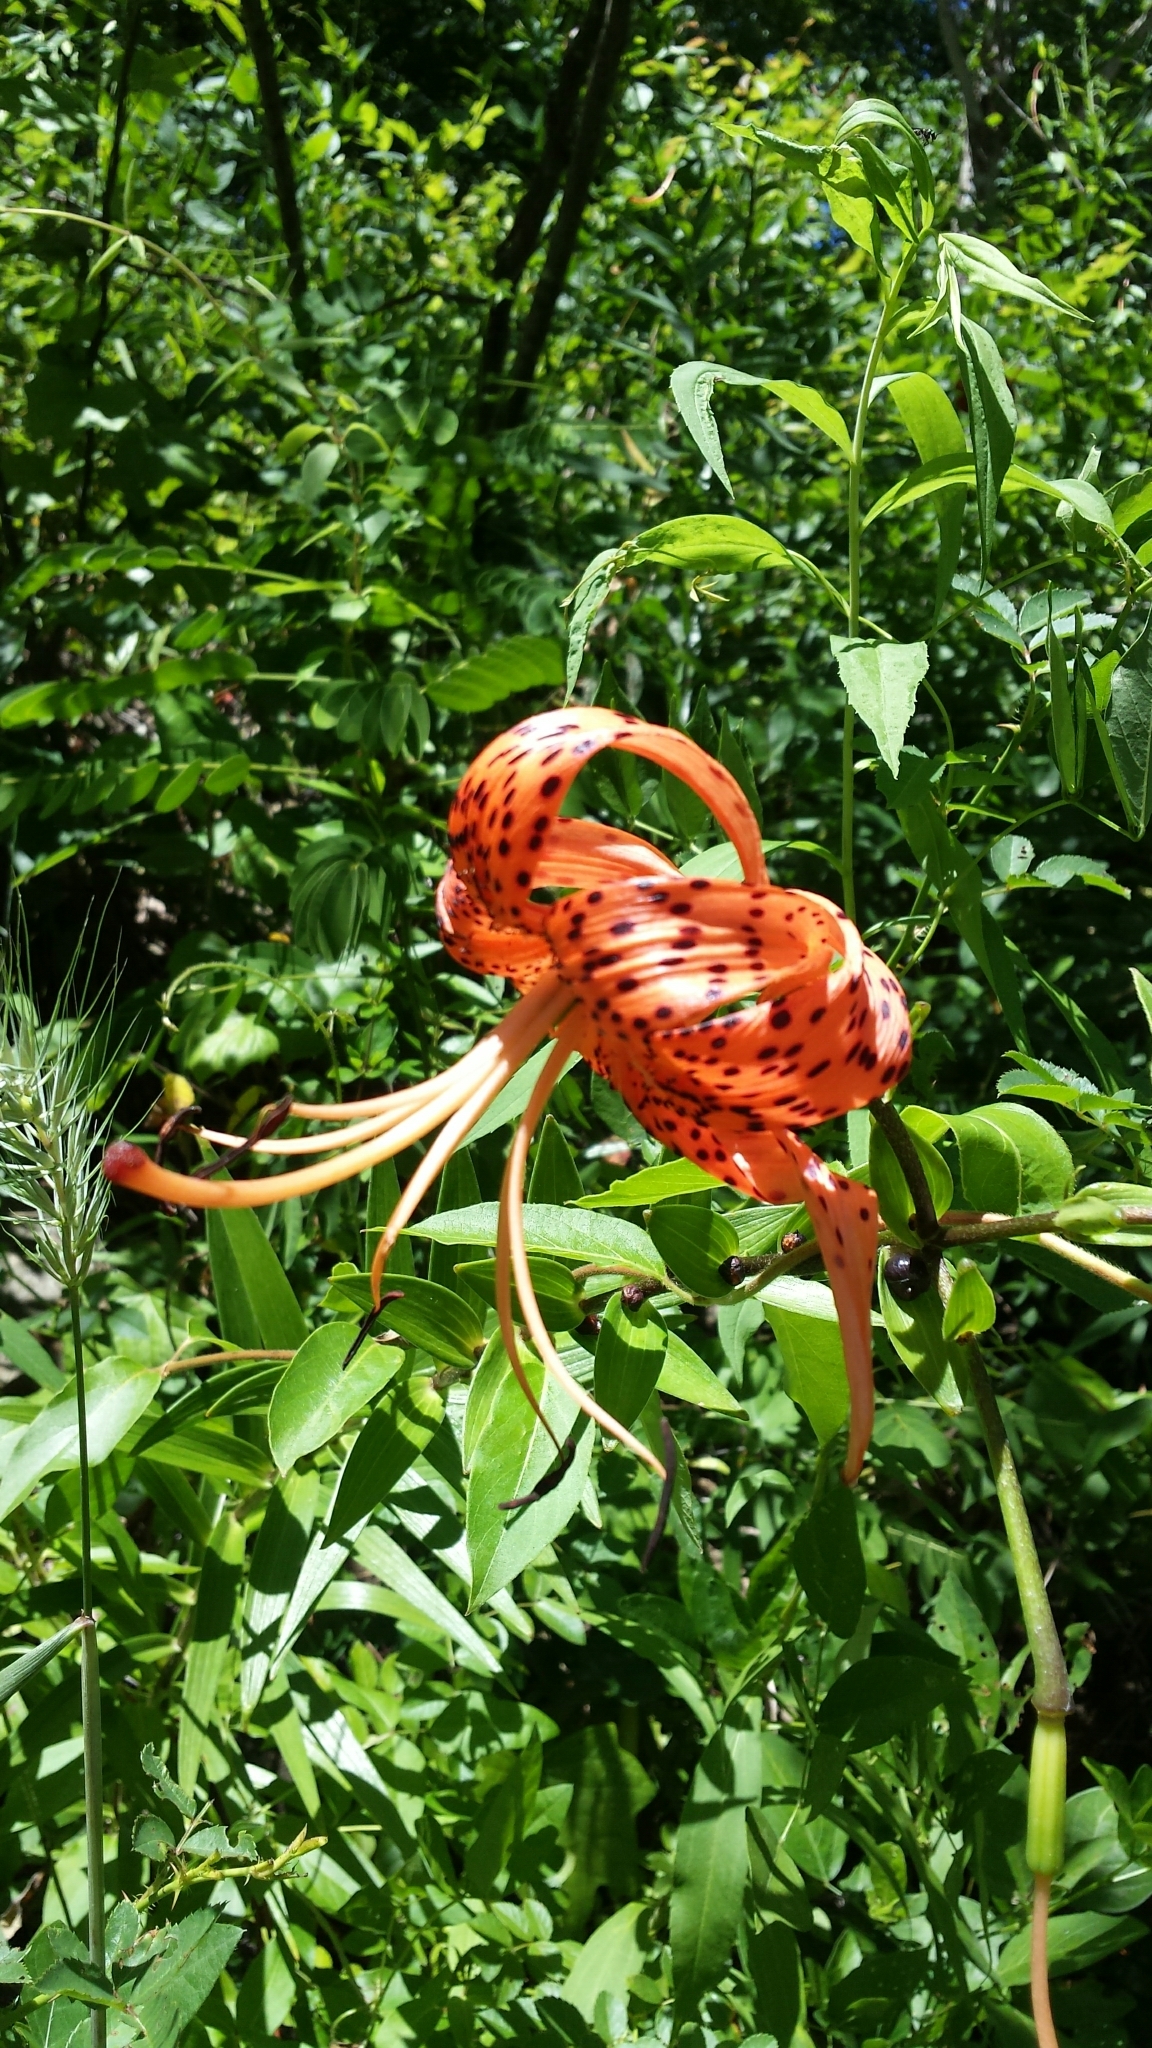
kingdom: Plantae
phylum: Tracheophyta
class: Liliopsida
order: Liliales
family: Liliaceae
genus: Lilium
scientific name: Lilium lancifolium
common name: Tiger lily
